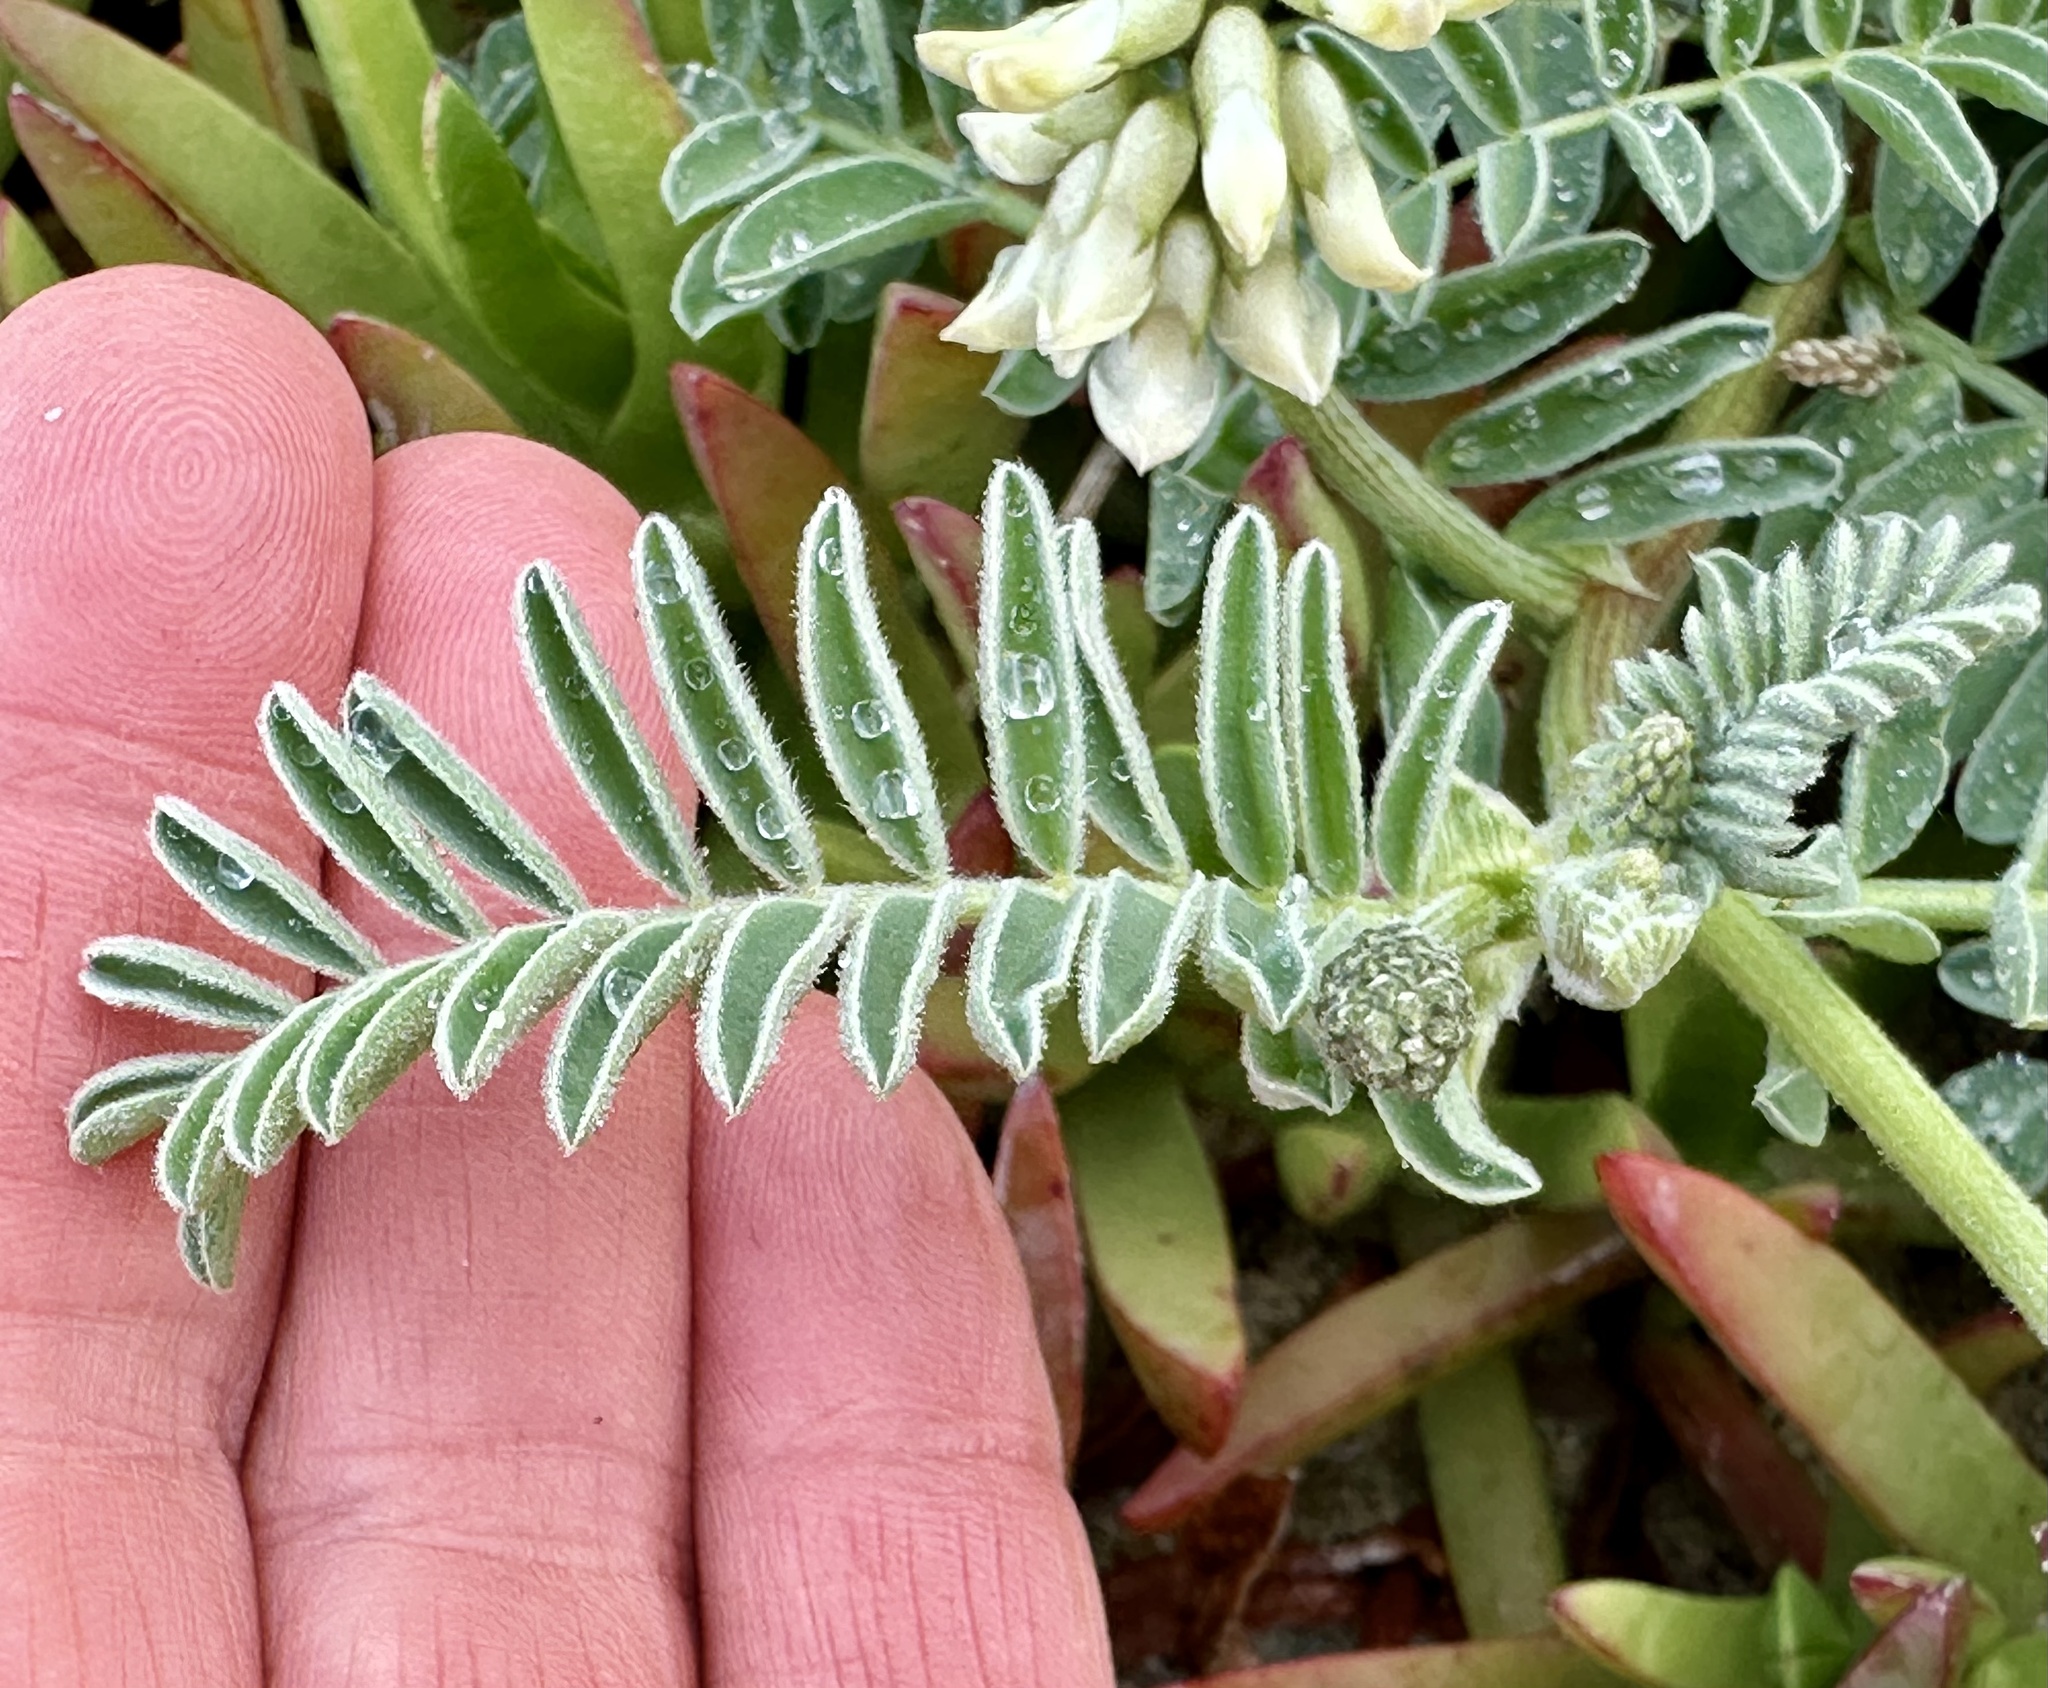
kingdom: Plantae
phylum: Tracheophyta
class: Magnoliopsida
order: Fabales
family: Fabaceae
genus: Astragalus
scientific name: Astragalus nuttallii
